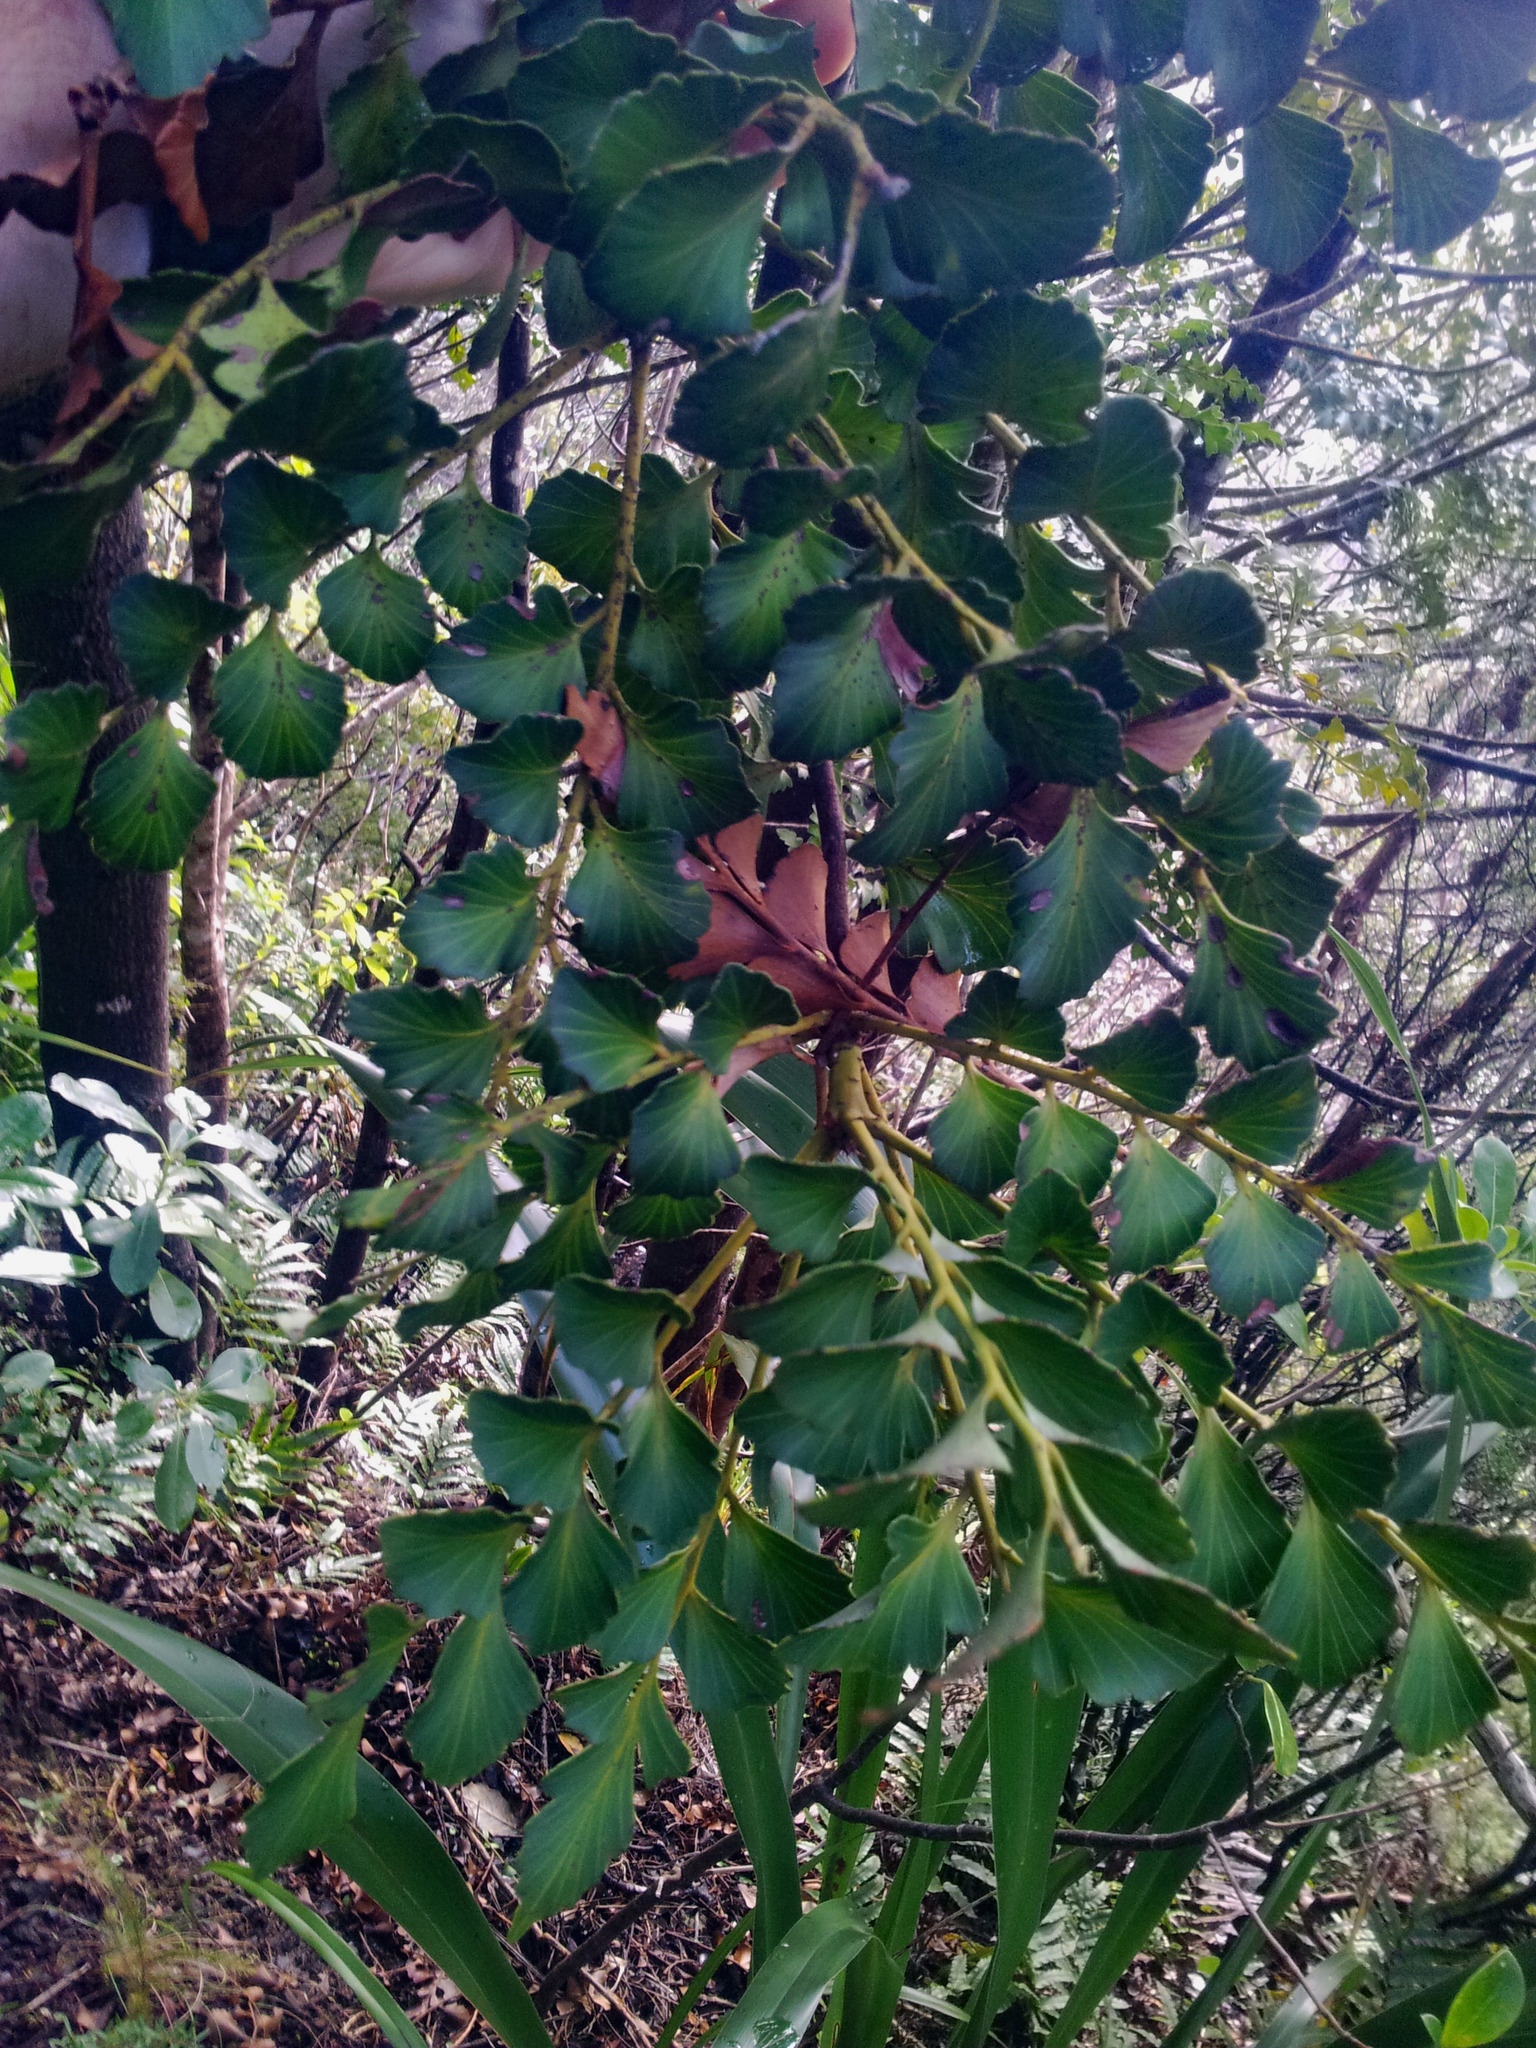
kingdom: Plantae
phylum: Tracheophyta
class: Pinopsida
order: Pinales
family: Phyllocladaceae
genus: Phyllocladus
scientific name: Phyllocladus toatoa
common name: Celery-top pine
